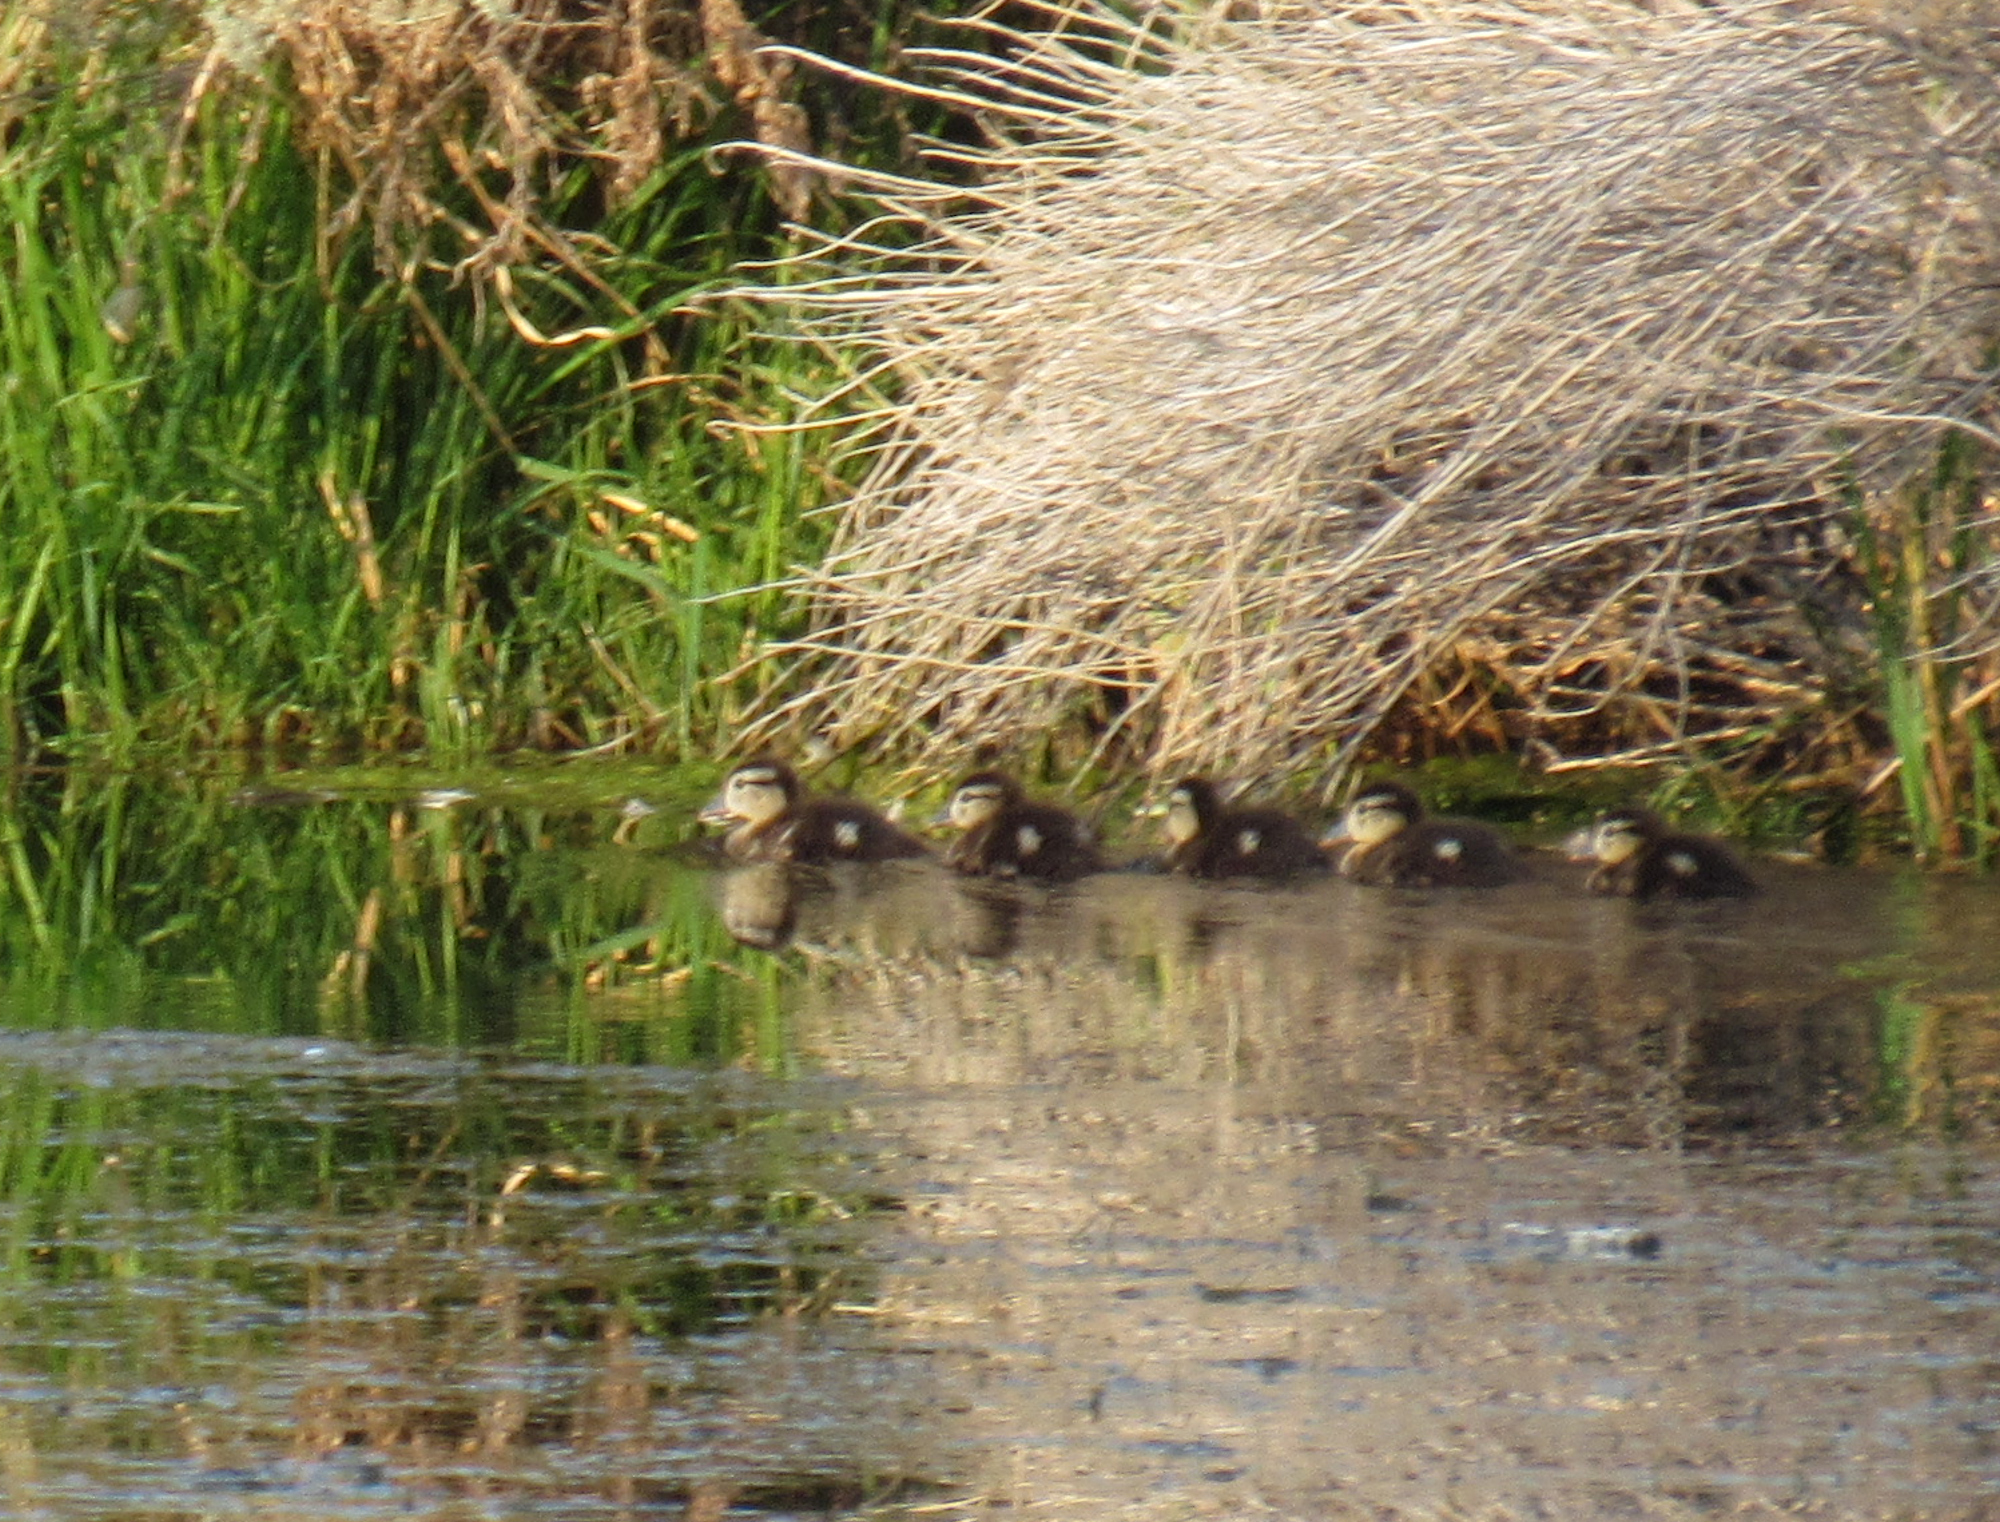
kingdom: Animalia
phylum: Chordata
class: Aves
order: Anseriformes
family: Anatidae
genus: Aix
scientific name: Aix sponsa
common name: Wood duck
